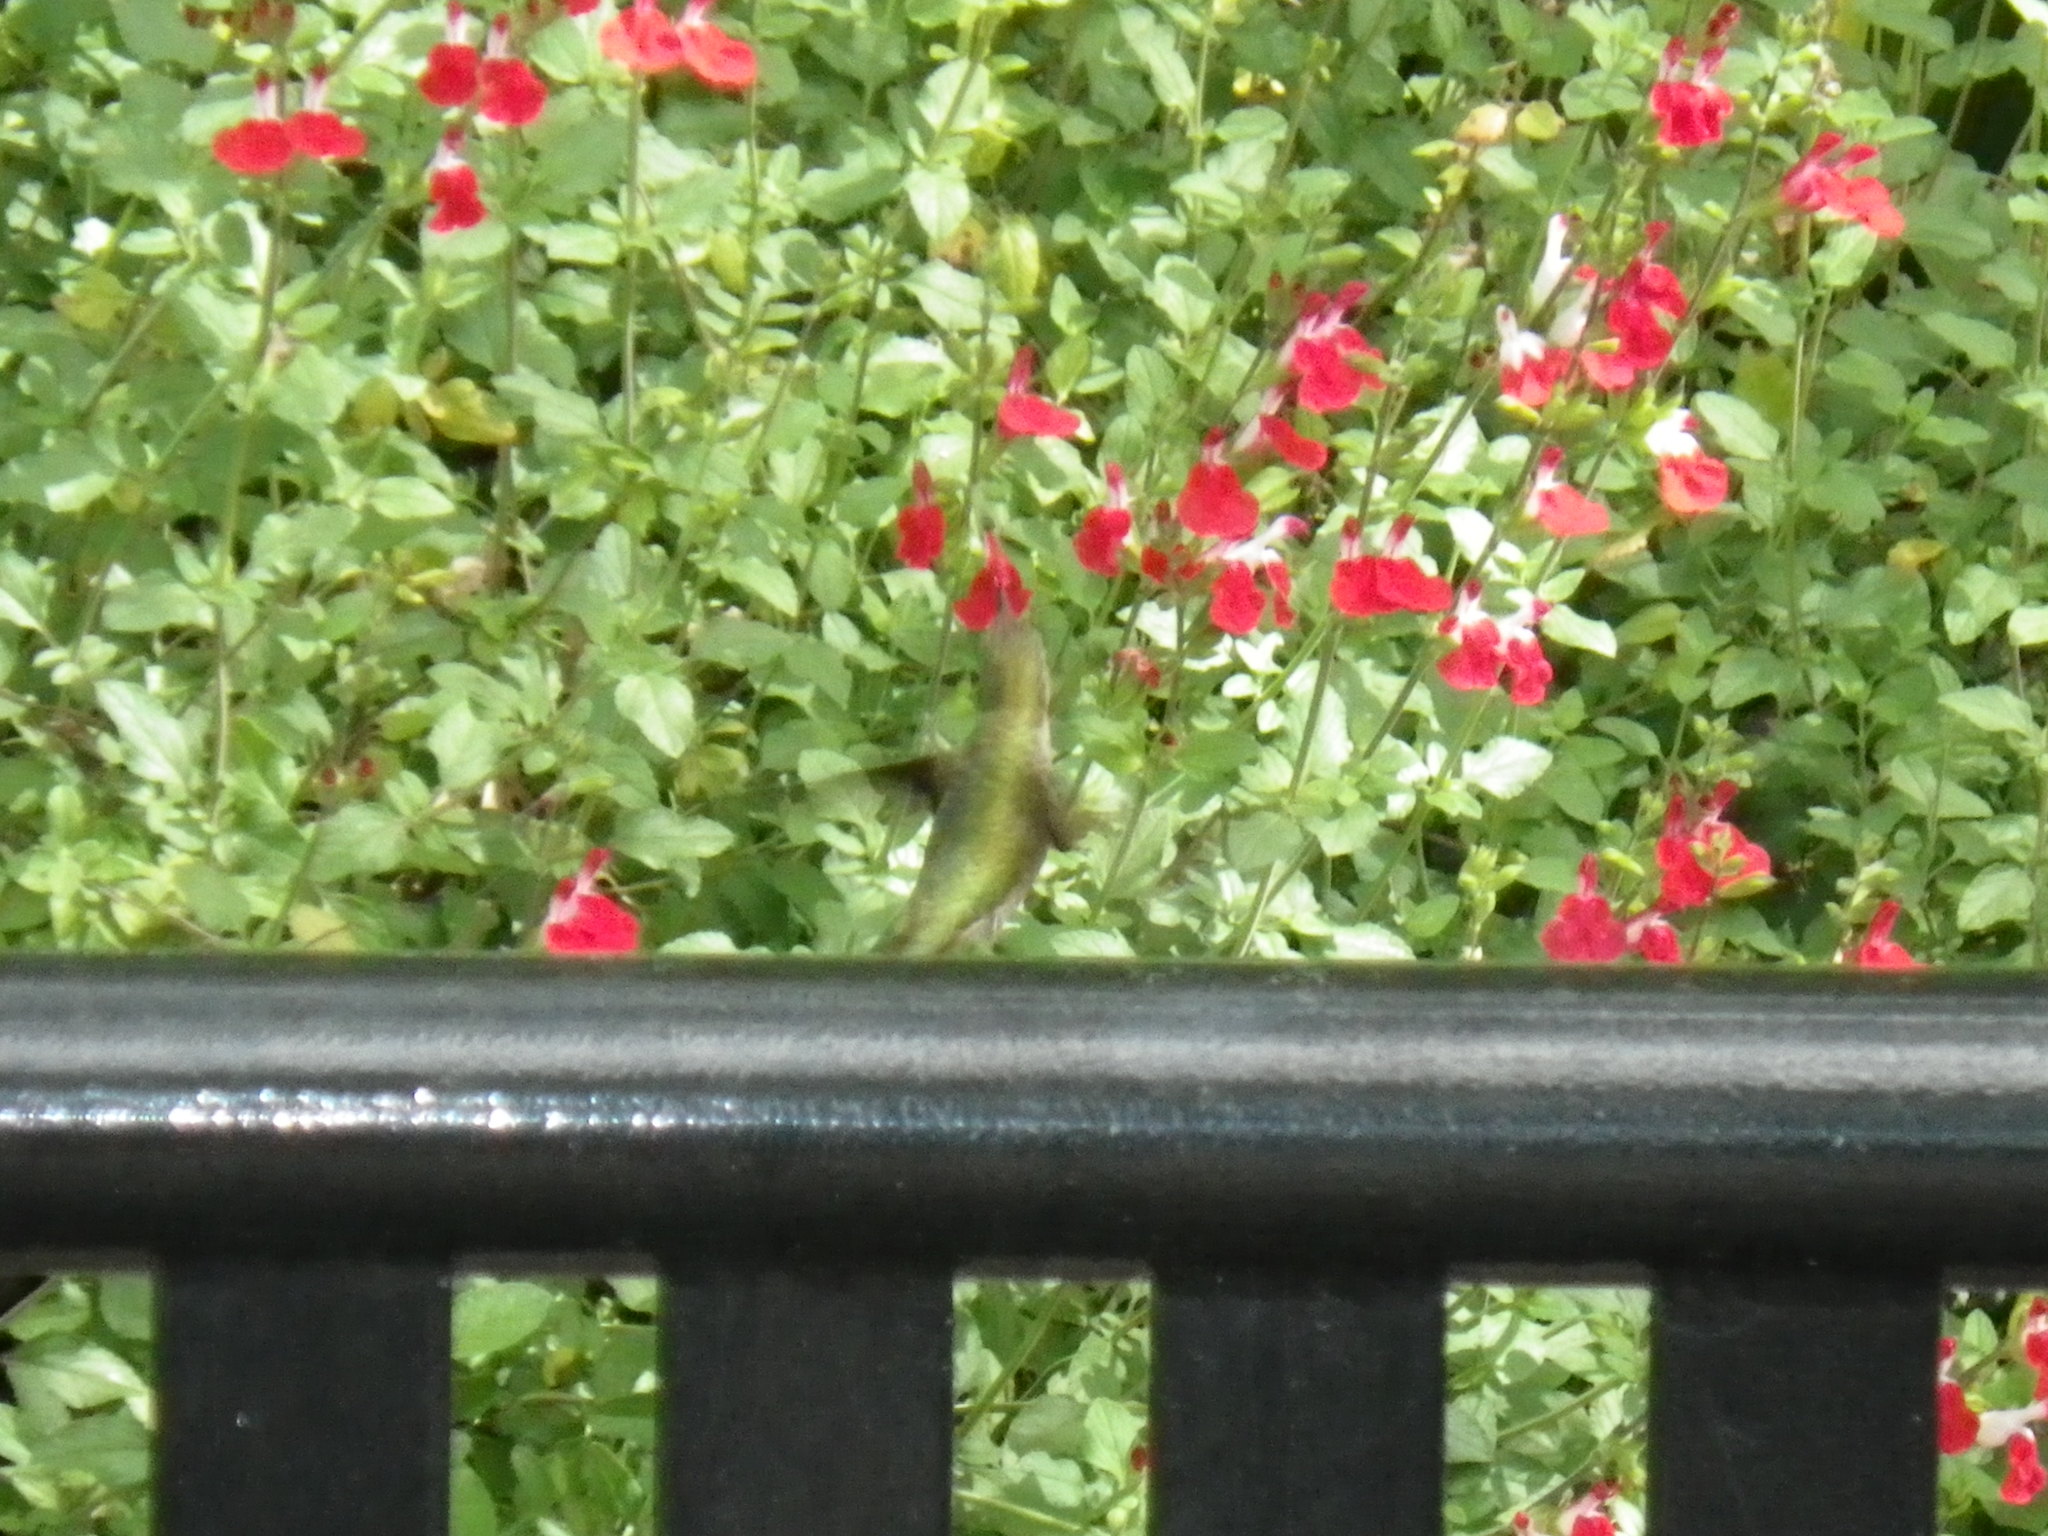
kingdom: Animalia
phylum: Chordata
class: Aves
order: Apodiformes
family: Trochilidae
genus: Calypte
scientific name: Calypte anna
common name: Anna's hummingbird
